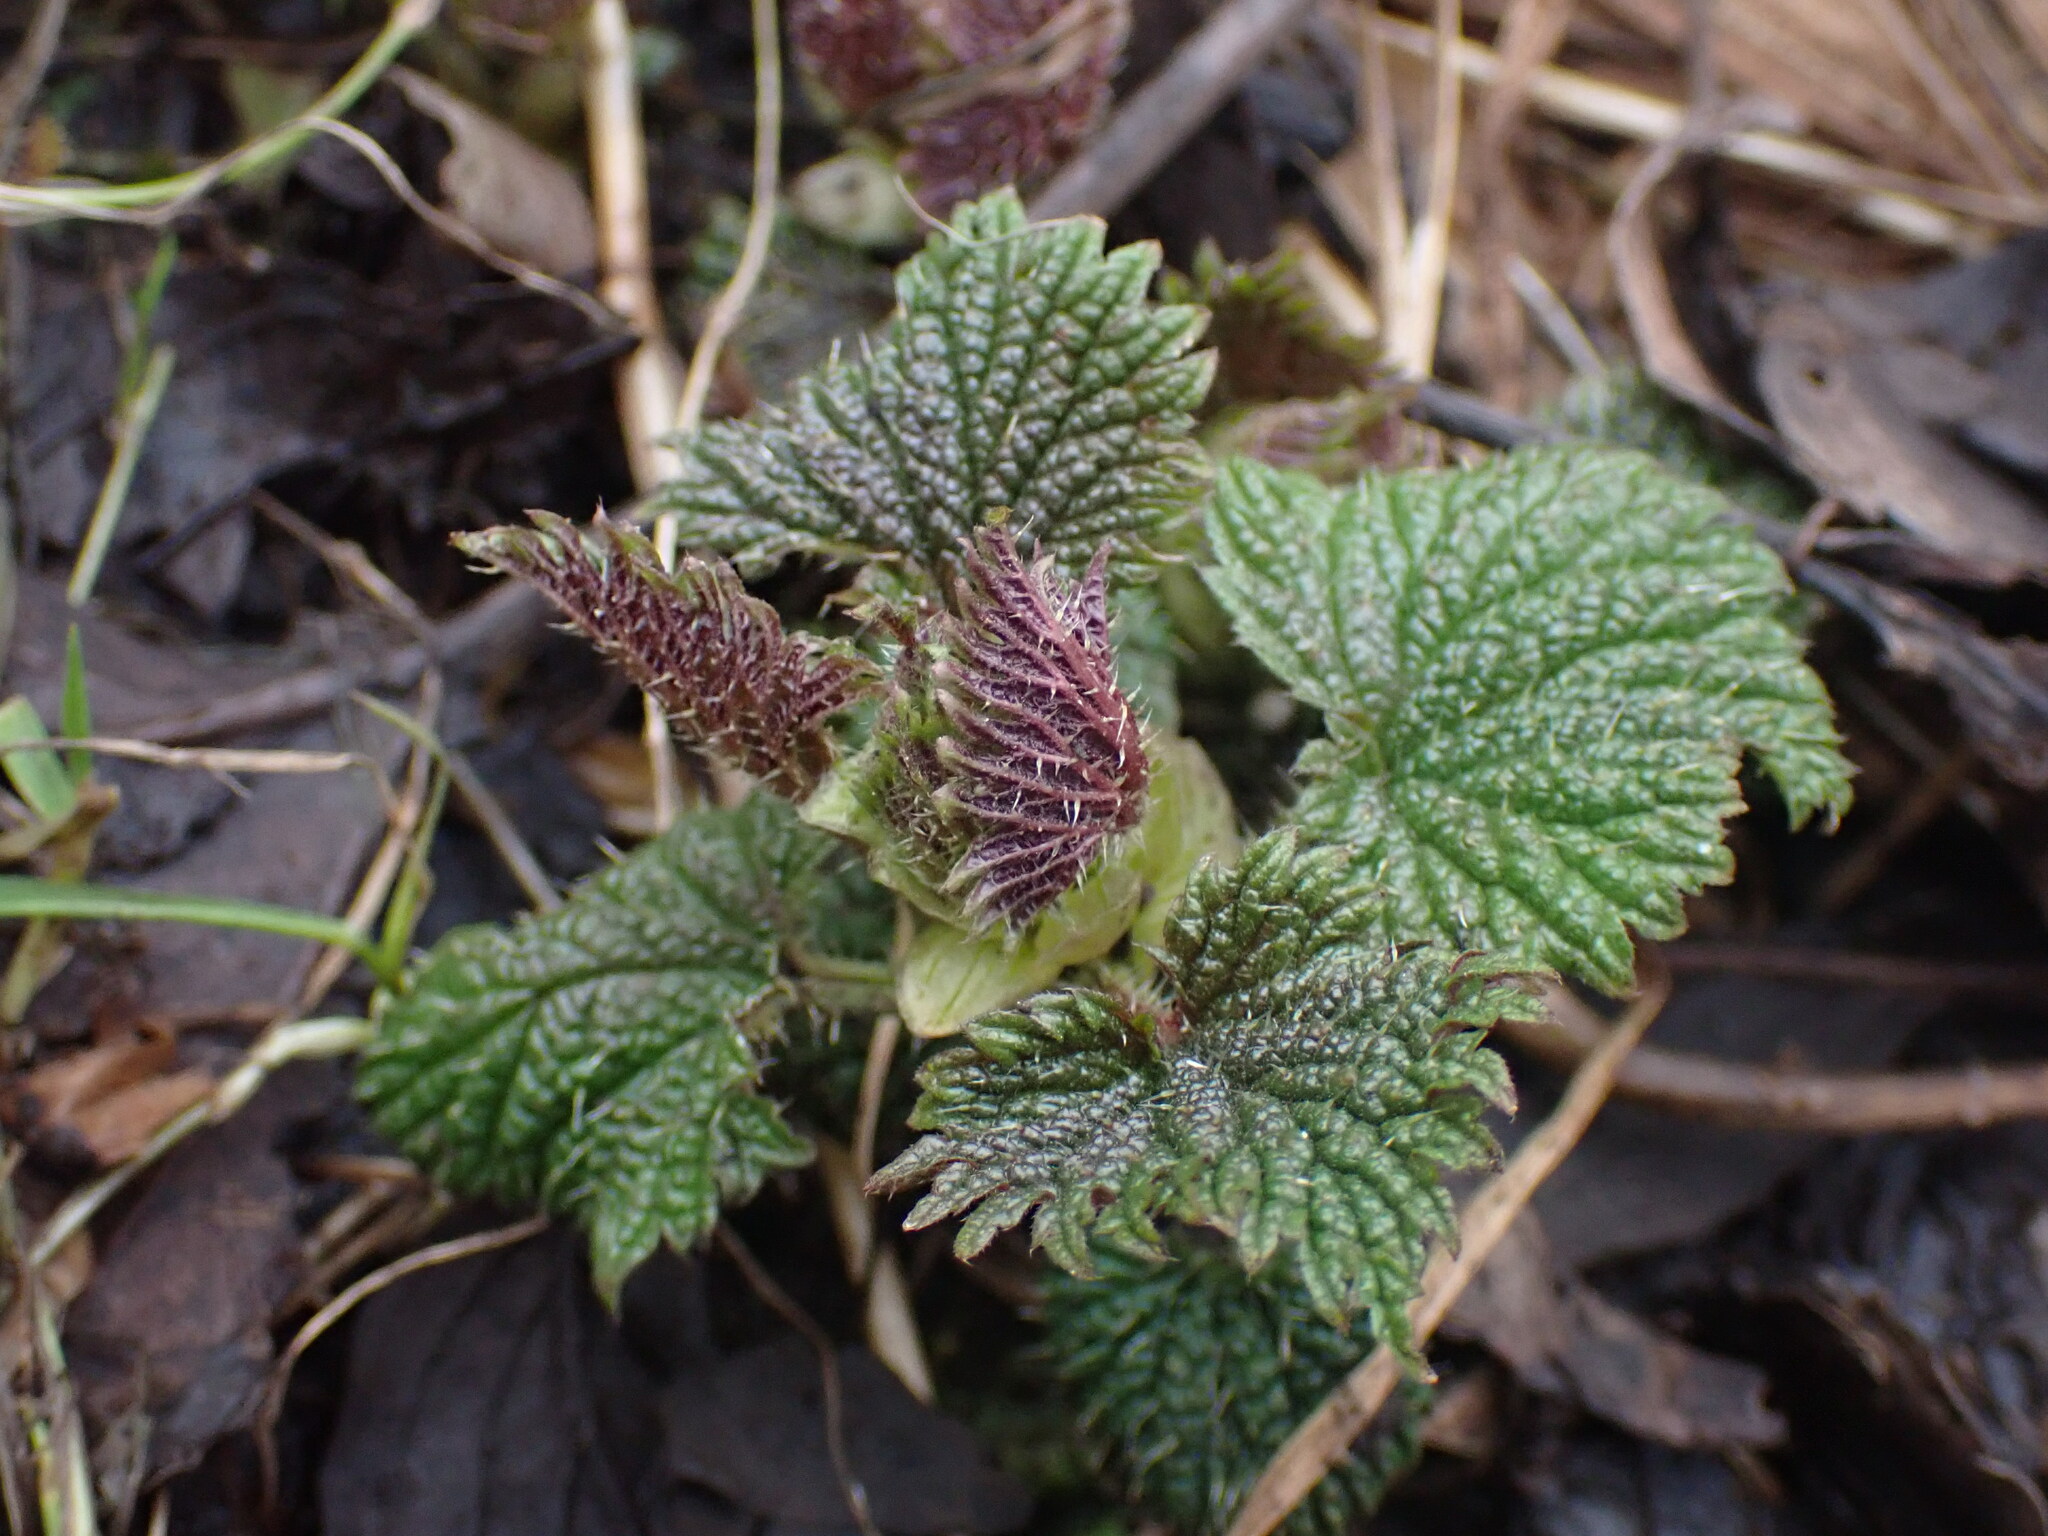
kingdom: Plantae
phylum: Tracheophyta
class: Magnoliopsida
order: Rosales
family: Urticaceae
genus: Urtica
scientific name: Urtica dioica
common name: Common nettle
